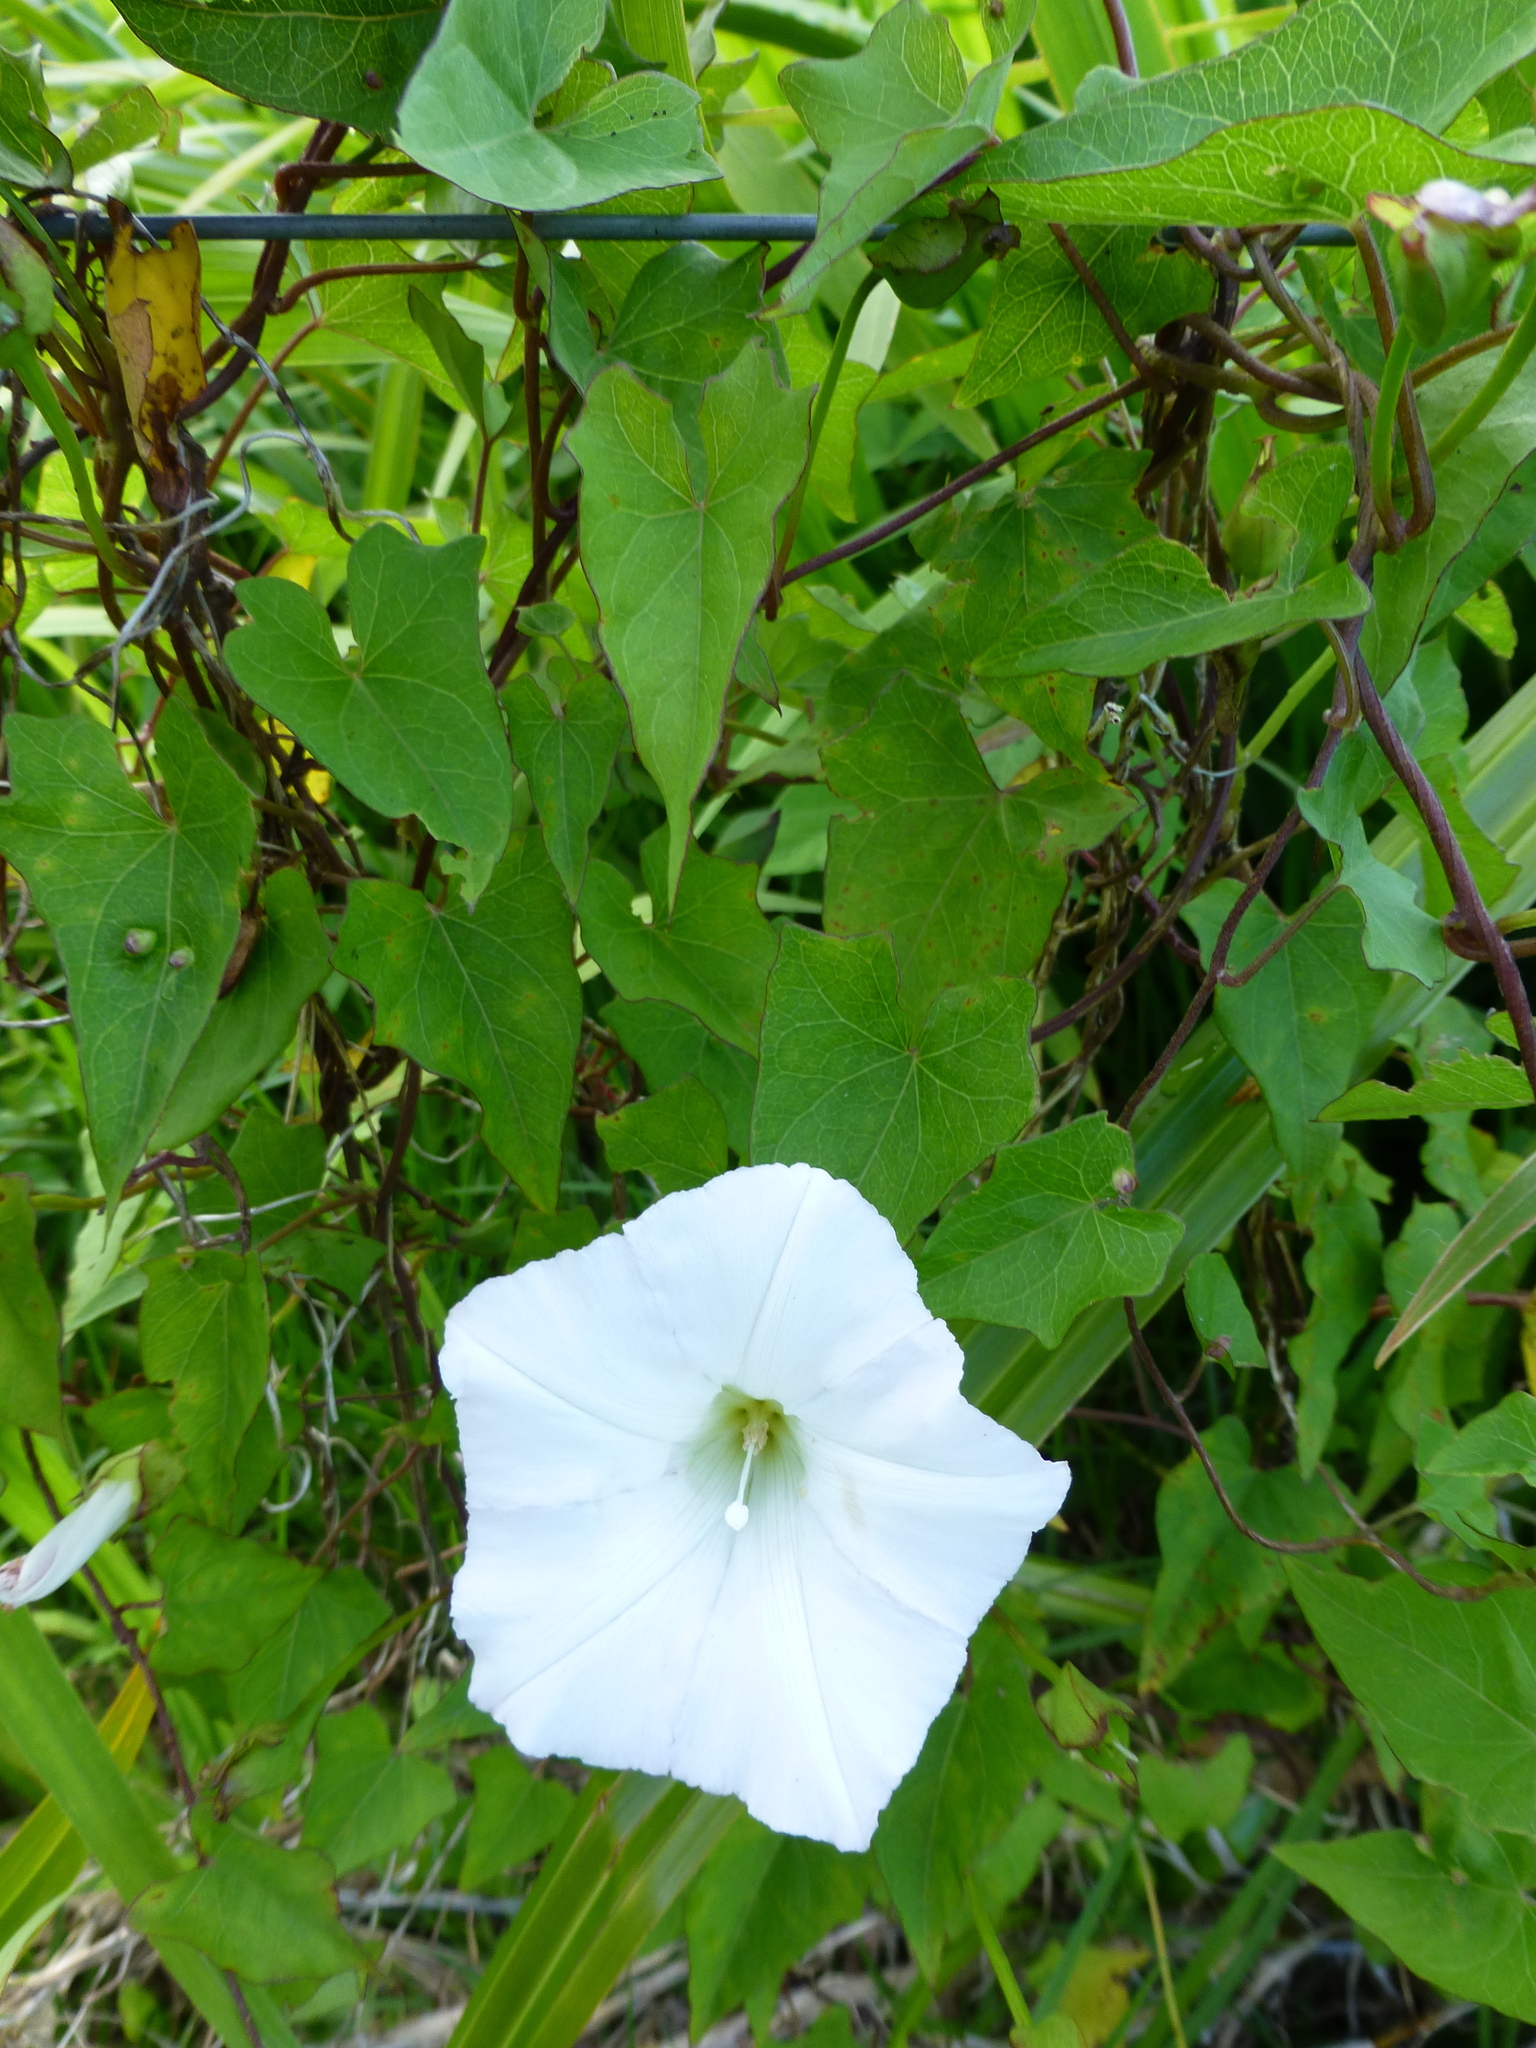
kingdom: Plantae
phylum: Tracheophyta
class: Magnoliopsida
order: Solanales
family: Convolvulaceae
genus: Calystegia
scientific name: Calystegia silvatica
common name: Large bindweed
